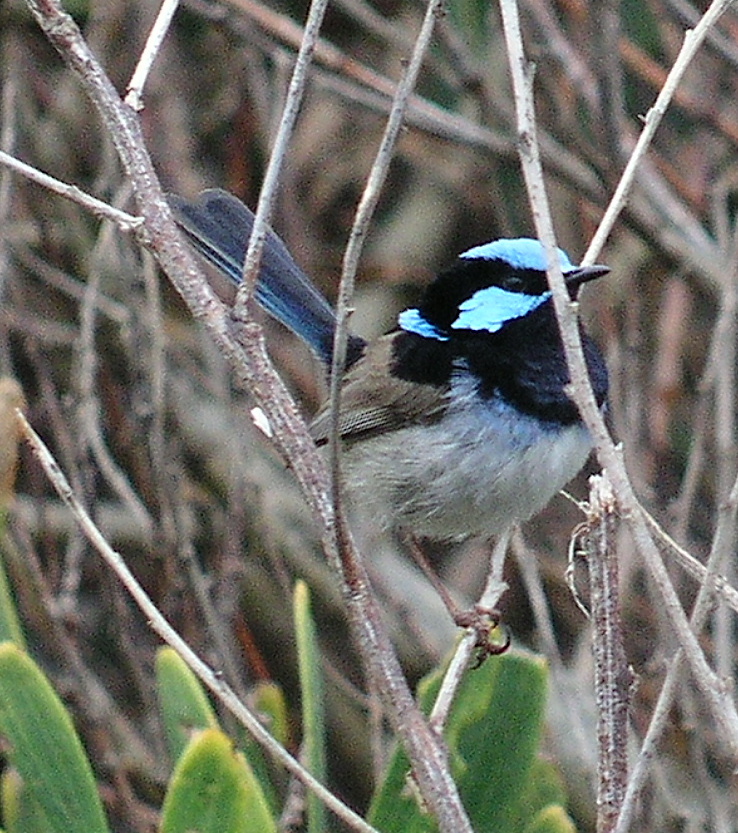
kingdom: Animalia
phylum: Chordata
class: Aves
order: Passeriformes
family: Maluridae
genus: Malurus
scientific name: Malurus cyaneus
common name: Superb fairywren
